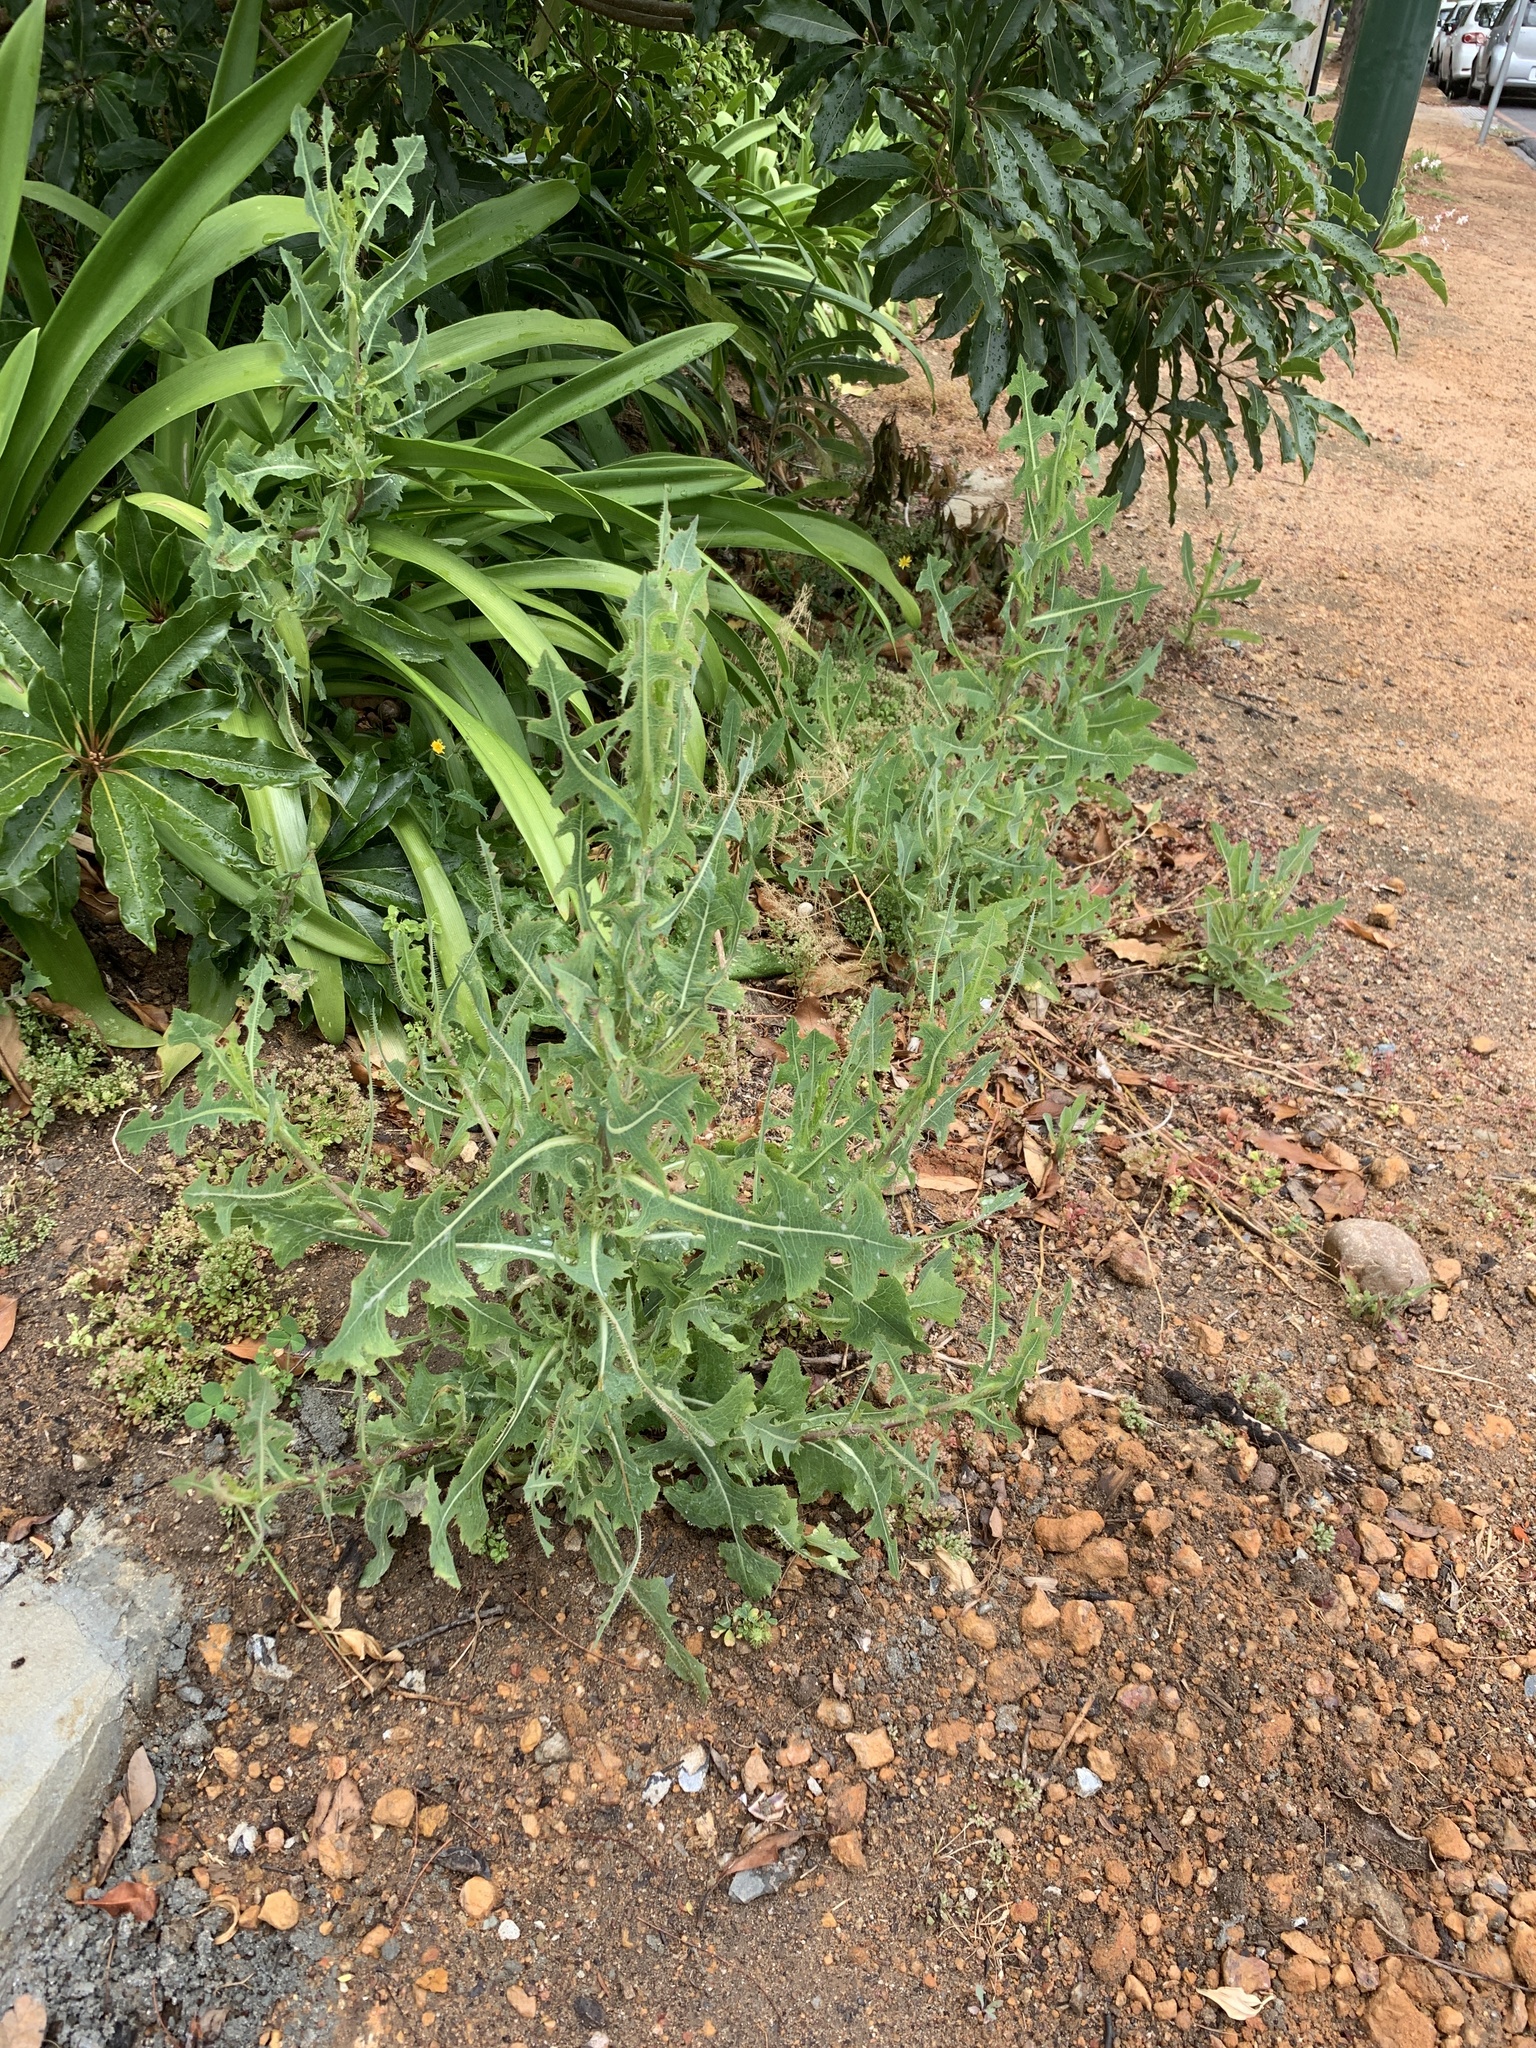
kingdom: Plantae
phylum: Tracheophyta
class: Magnoliopsida
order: Asterales
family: Asteraceae
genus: Lactuca
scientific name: Lactuca serriola
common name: Prickly lettuce
